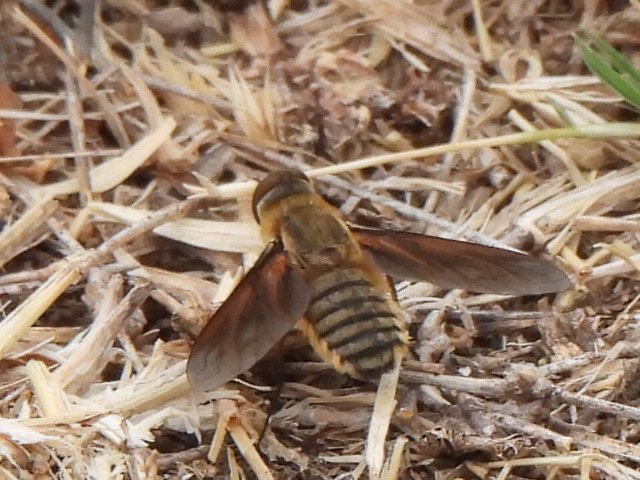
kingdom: Animalia
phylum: Arthropoda
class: Insecta
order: Diptera
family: Bombyliidae
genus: Poecilanthrax
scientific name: Poecilanthrax lucifer
